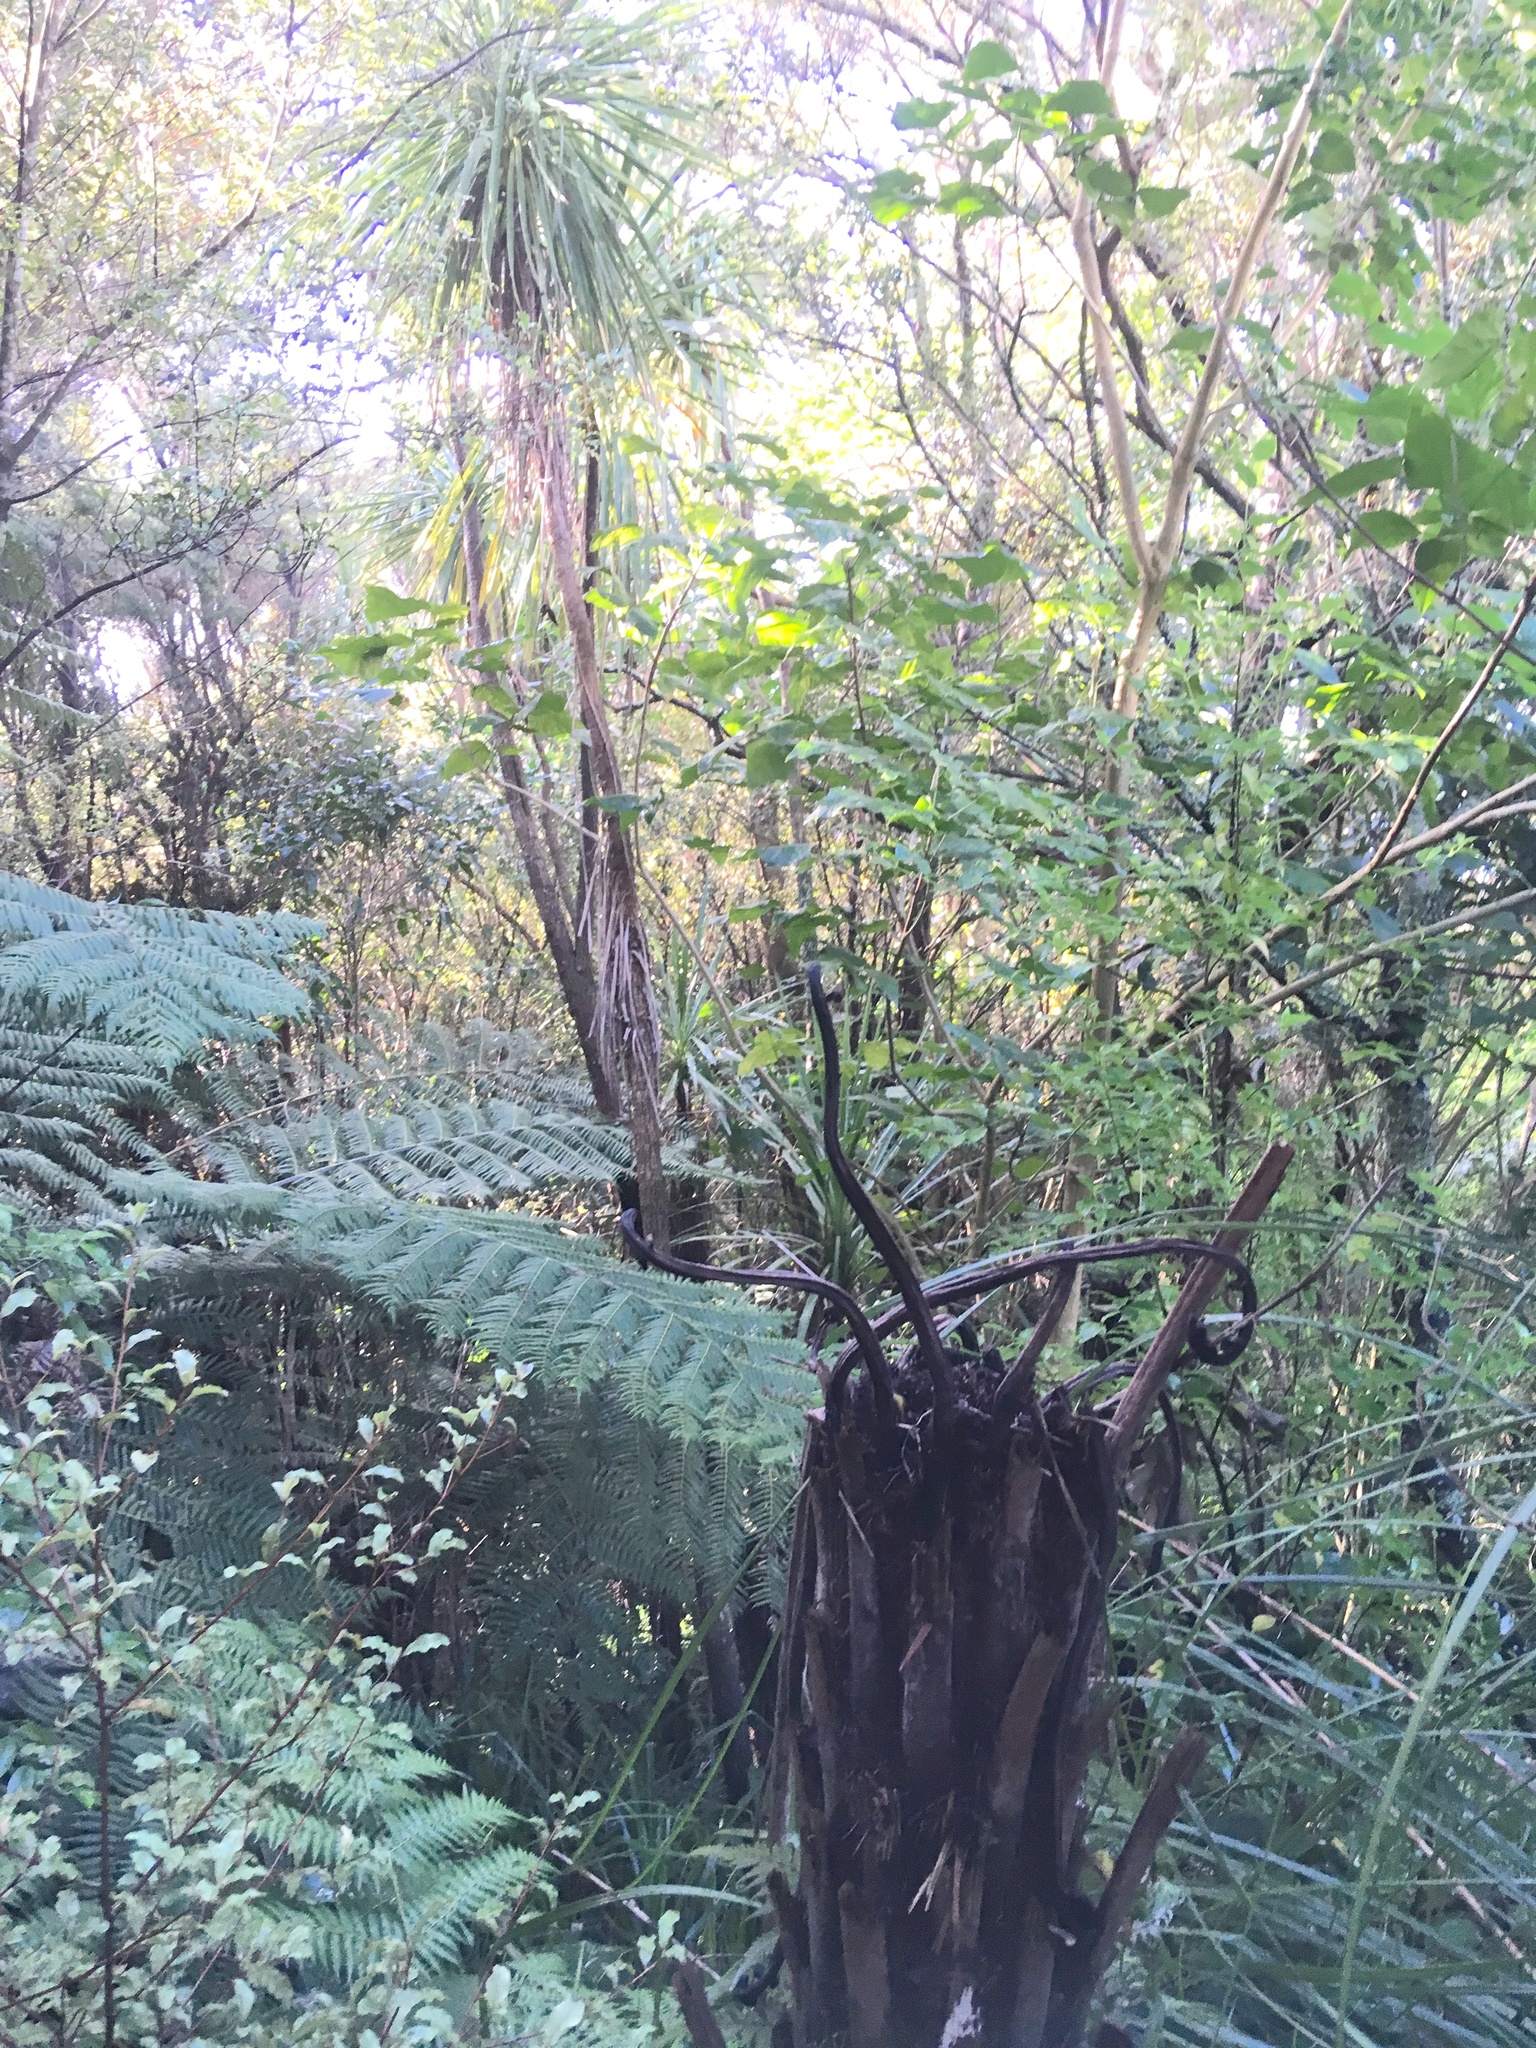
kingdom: Plantae
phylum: Tracheophyta
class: Liliopsida
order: Asparagales
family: Asparagaceae
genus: Cordyline
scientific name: Cordyline australis
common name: Cabbage-palm
